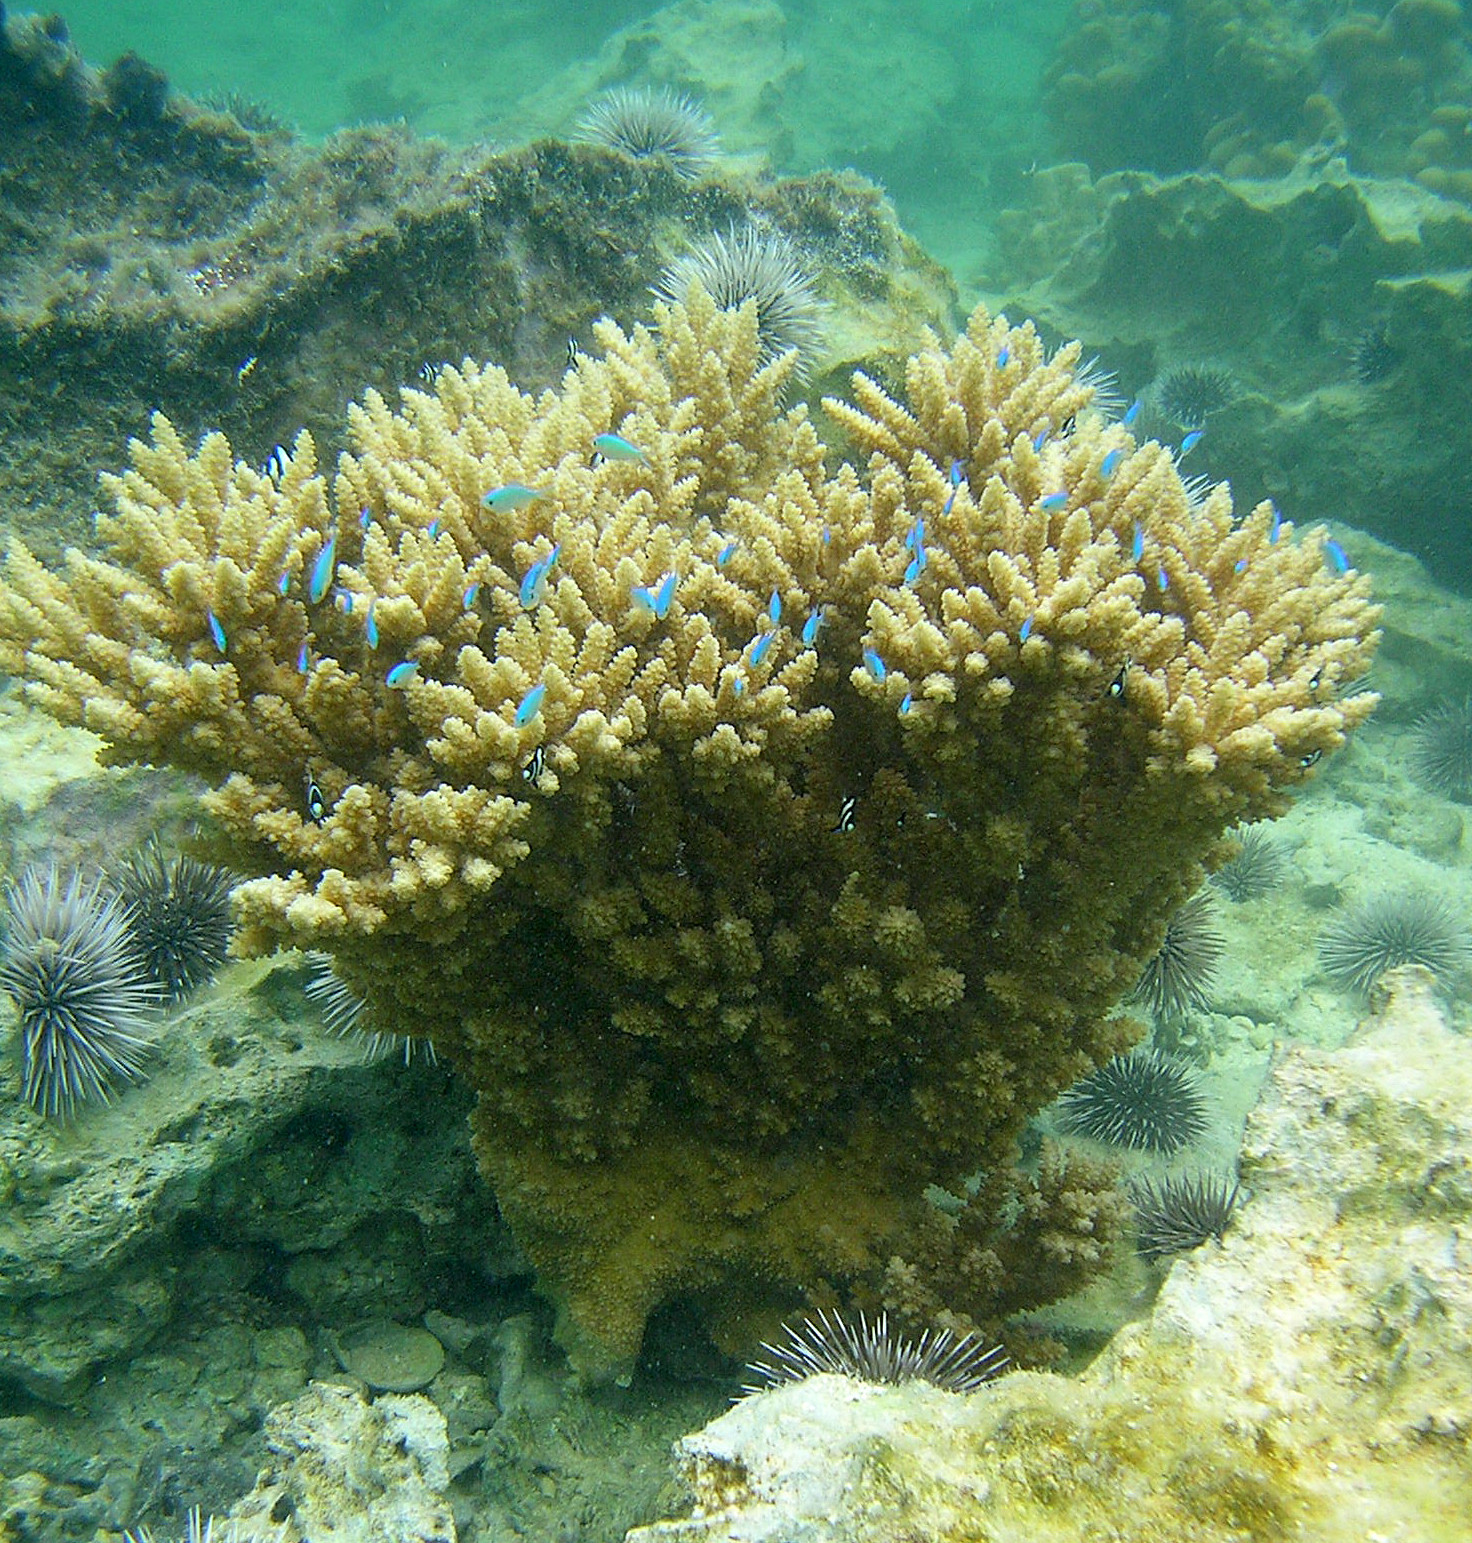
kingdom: Animalia
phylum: Chordata
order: Perciformes
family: Pomacentridae
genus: Dascyllus
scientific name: Dascyllus aruanus
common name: Humbug dascyllus
